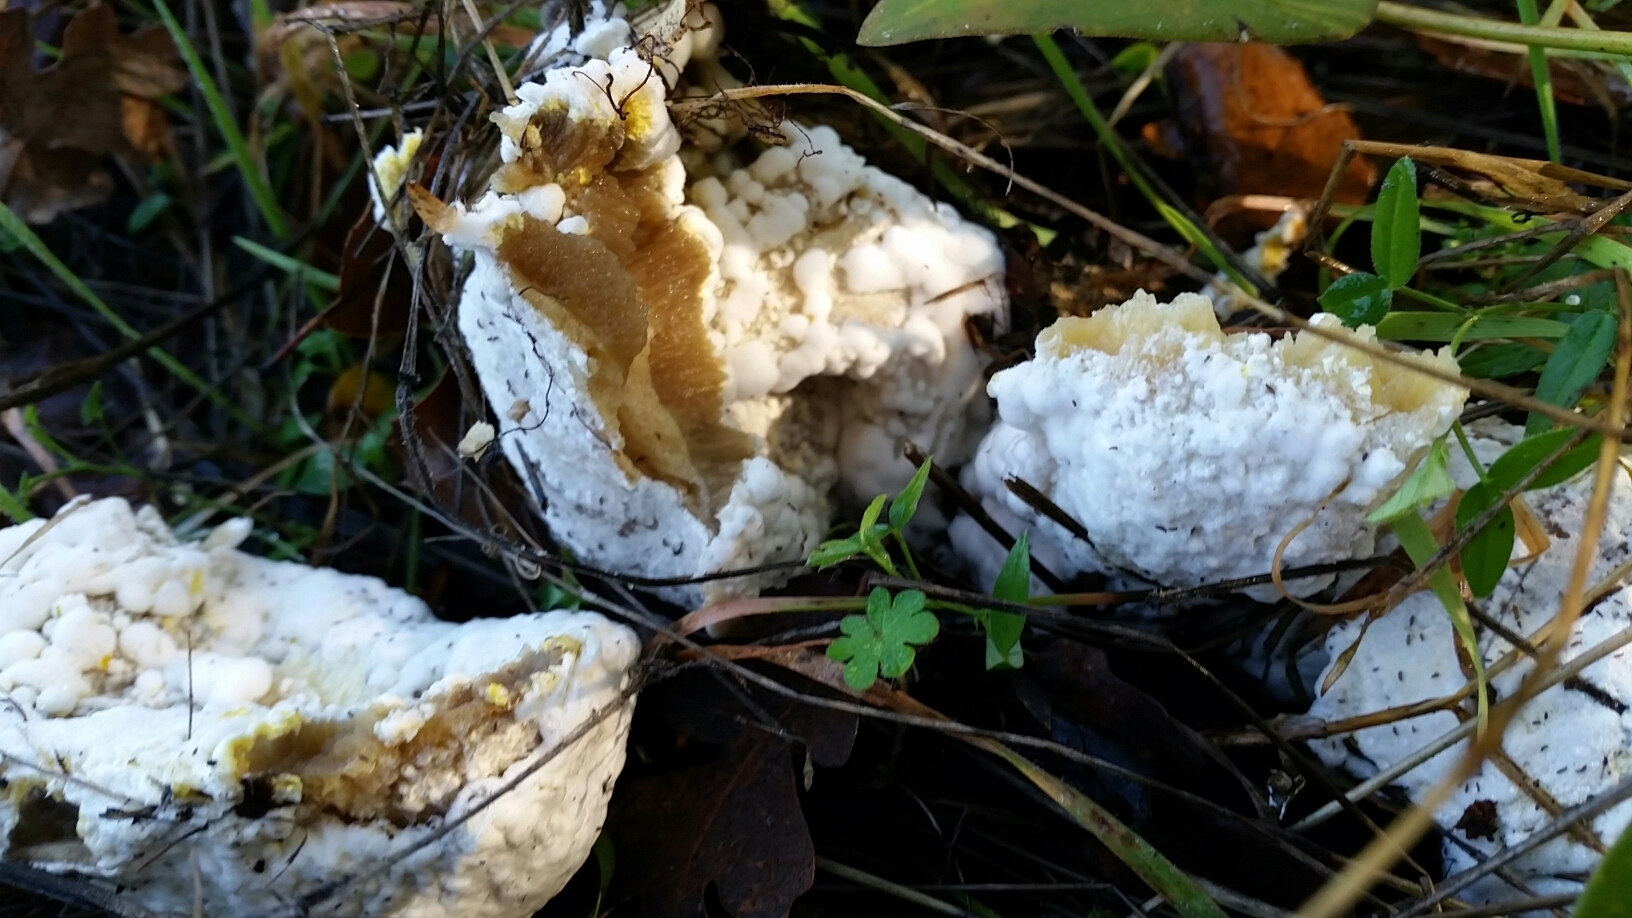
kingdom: Fungi
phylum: Ascomycota
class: Sordariomycetes
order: Hypocreales
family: Hypocreaceae
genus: Hypomyces
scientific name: Hypomyces microspermus
